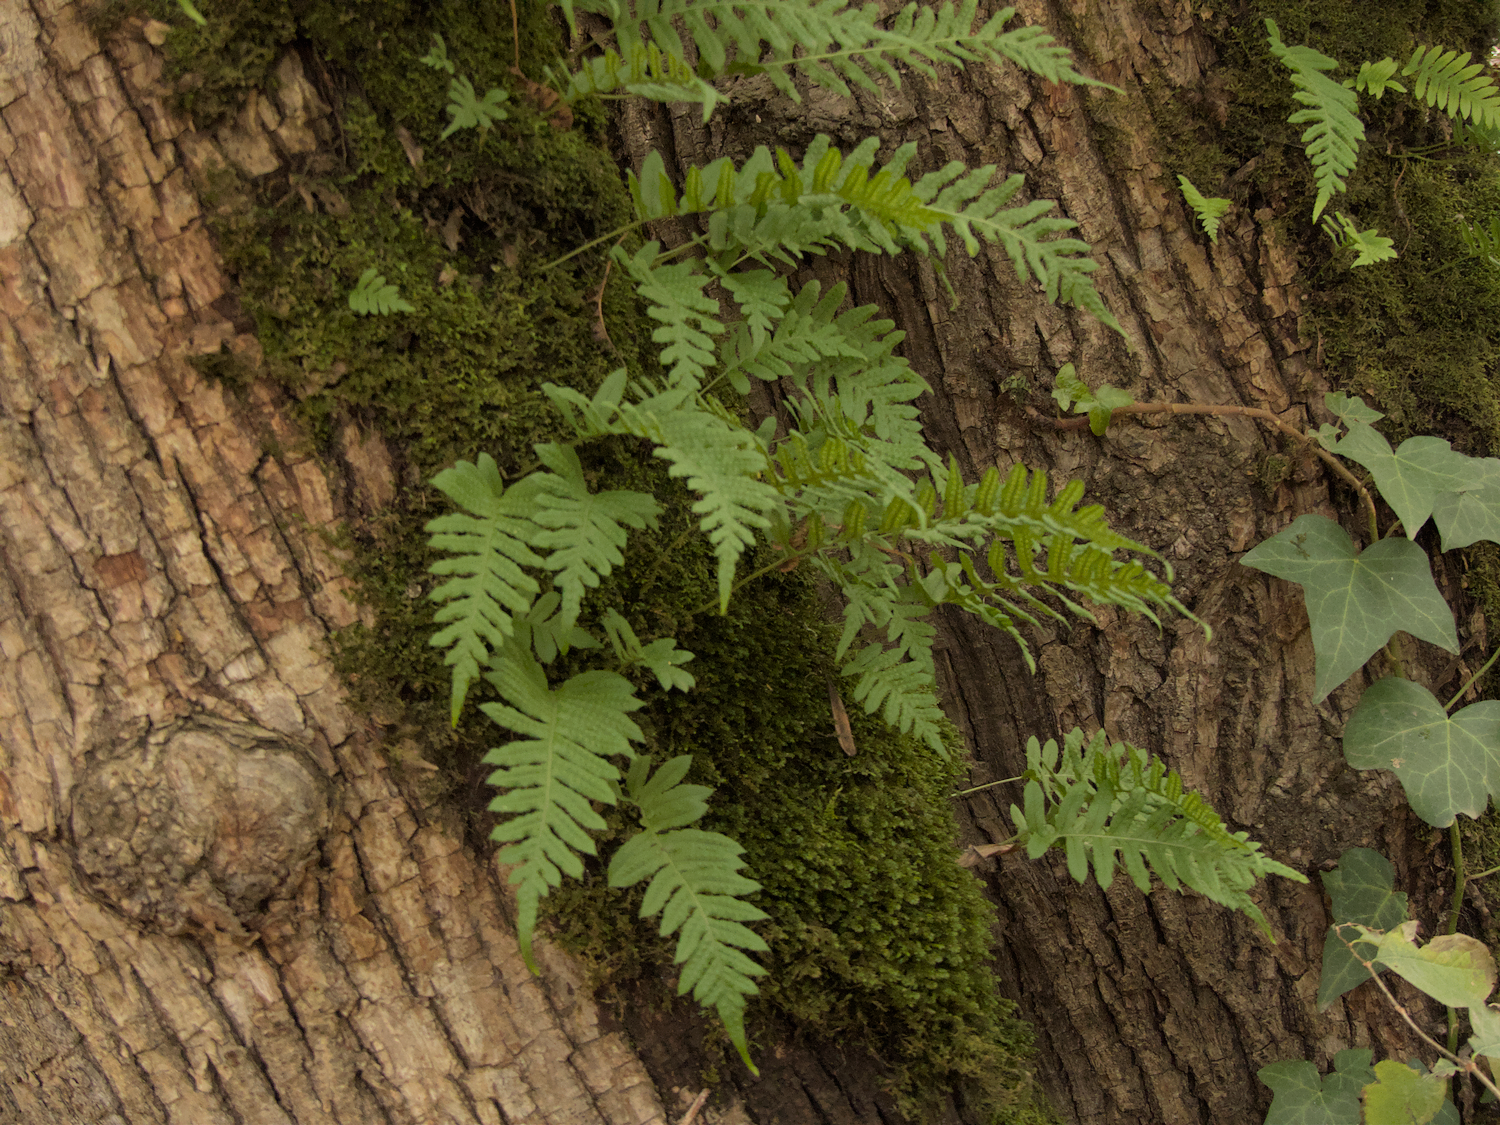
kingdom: Plantae
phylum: Tracheophyta
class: Polypodiopsida
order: Polypodiales
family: Polypodiaceae
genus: Polypodium
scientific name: Polypodium glycyrrhiza
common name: Licorice fern
